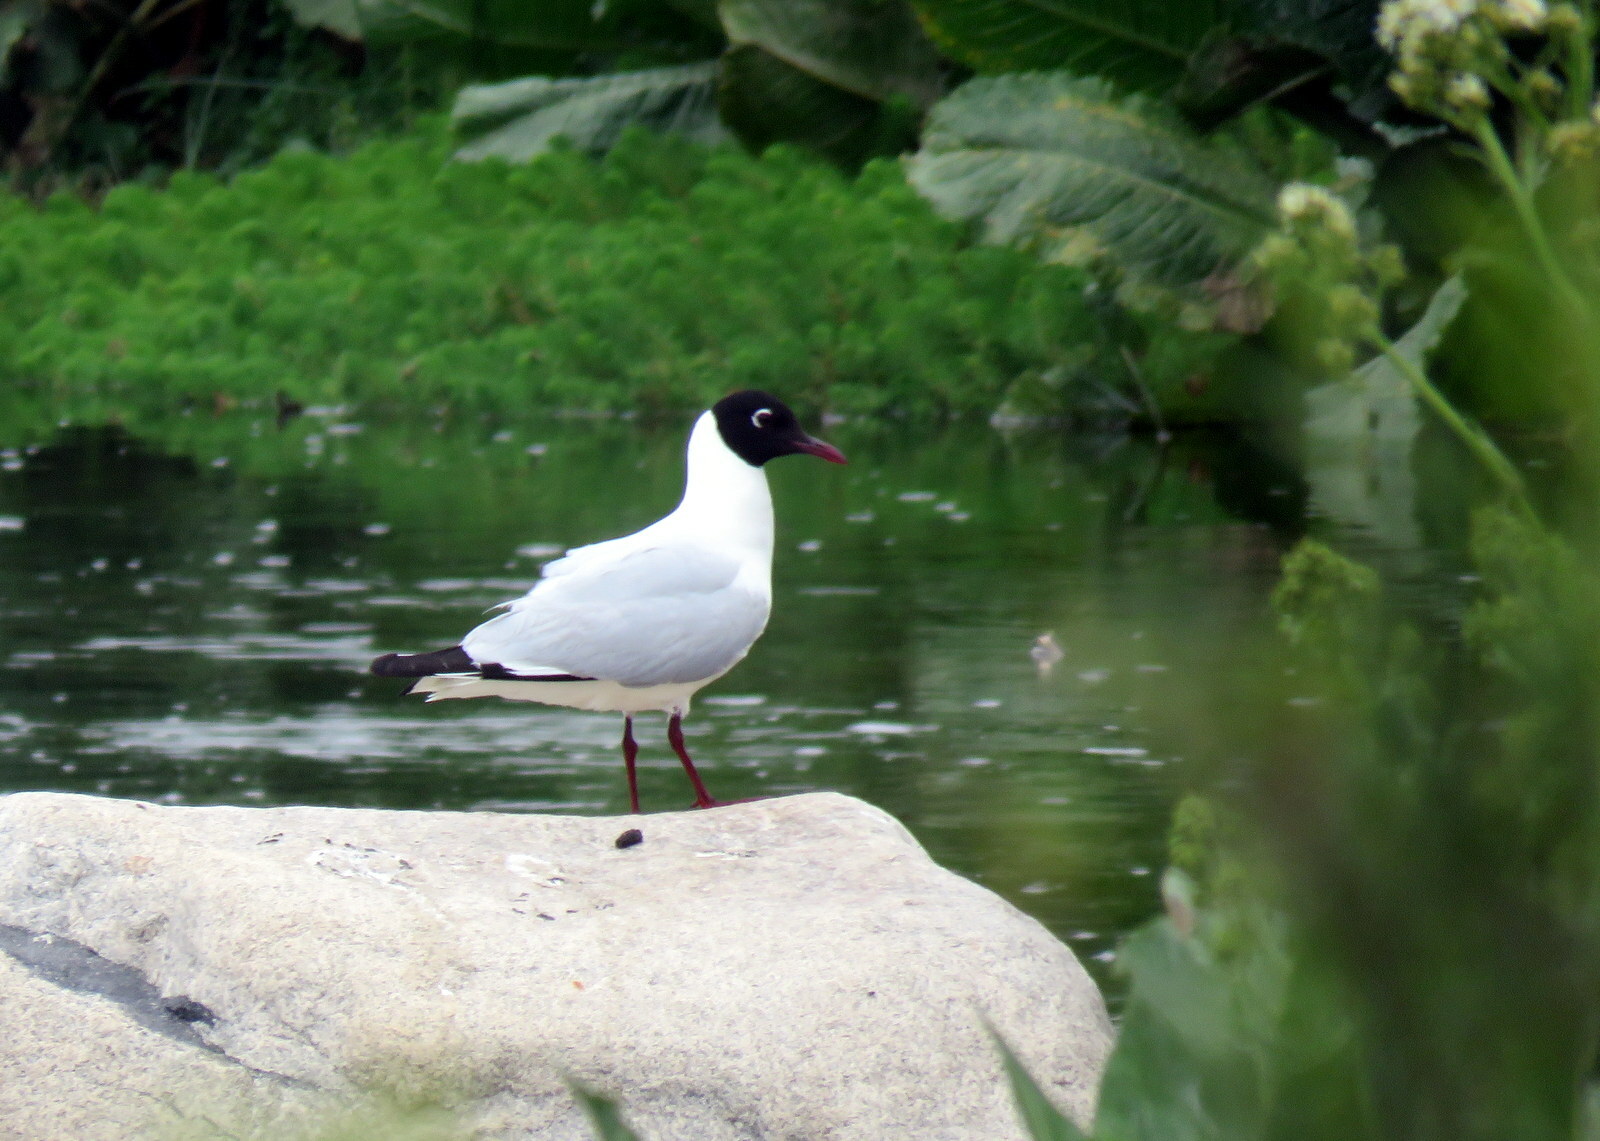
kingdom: Animalia
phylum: Chordata
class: Aves
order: Charadriiformes
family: Laridae
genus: Chroicocephalus
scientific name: Chroicocephalus serranus
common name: Andean gull
